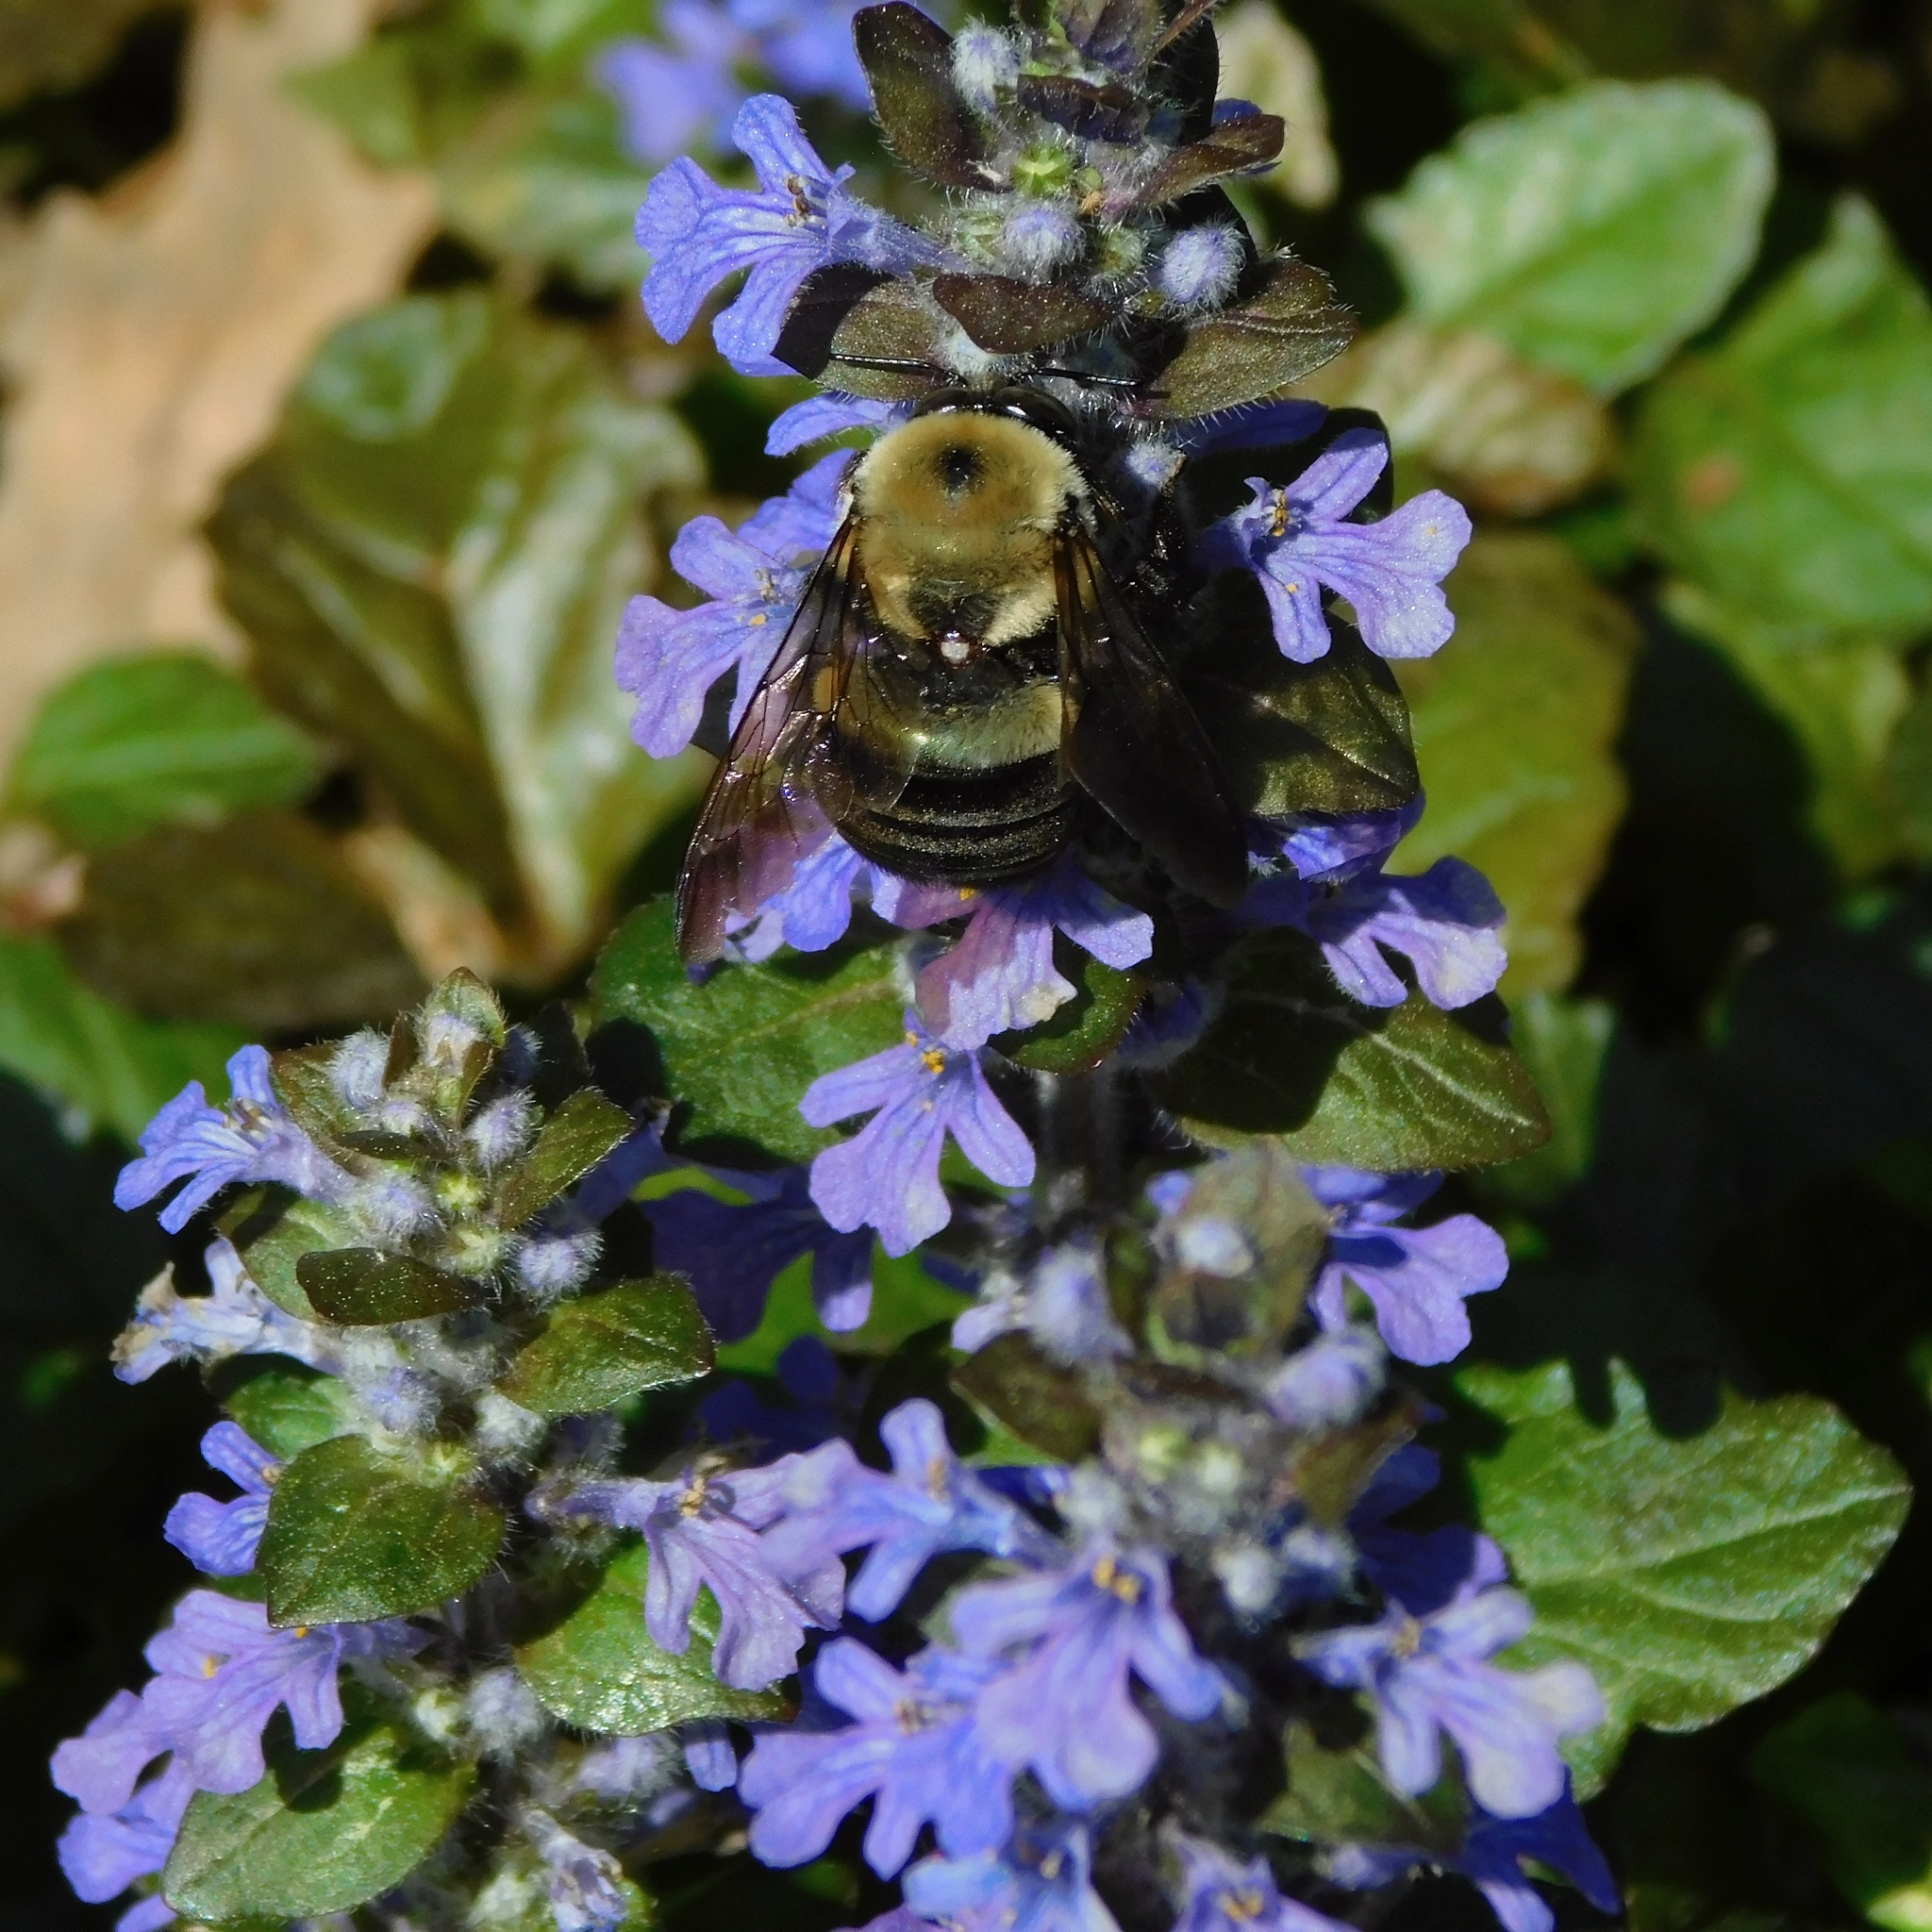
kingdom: Animalia
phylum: Arthropoda
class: Insecta
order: Hymenoptera
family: Apidae
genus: Xylocopa
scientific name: Xylocopa virginica
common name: Carpenter bee
